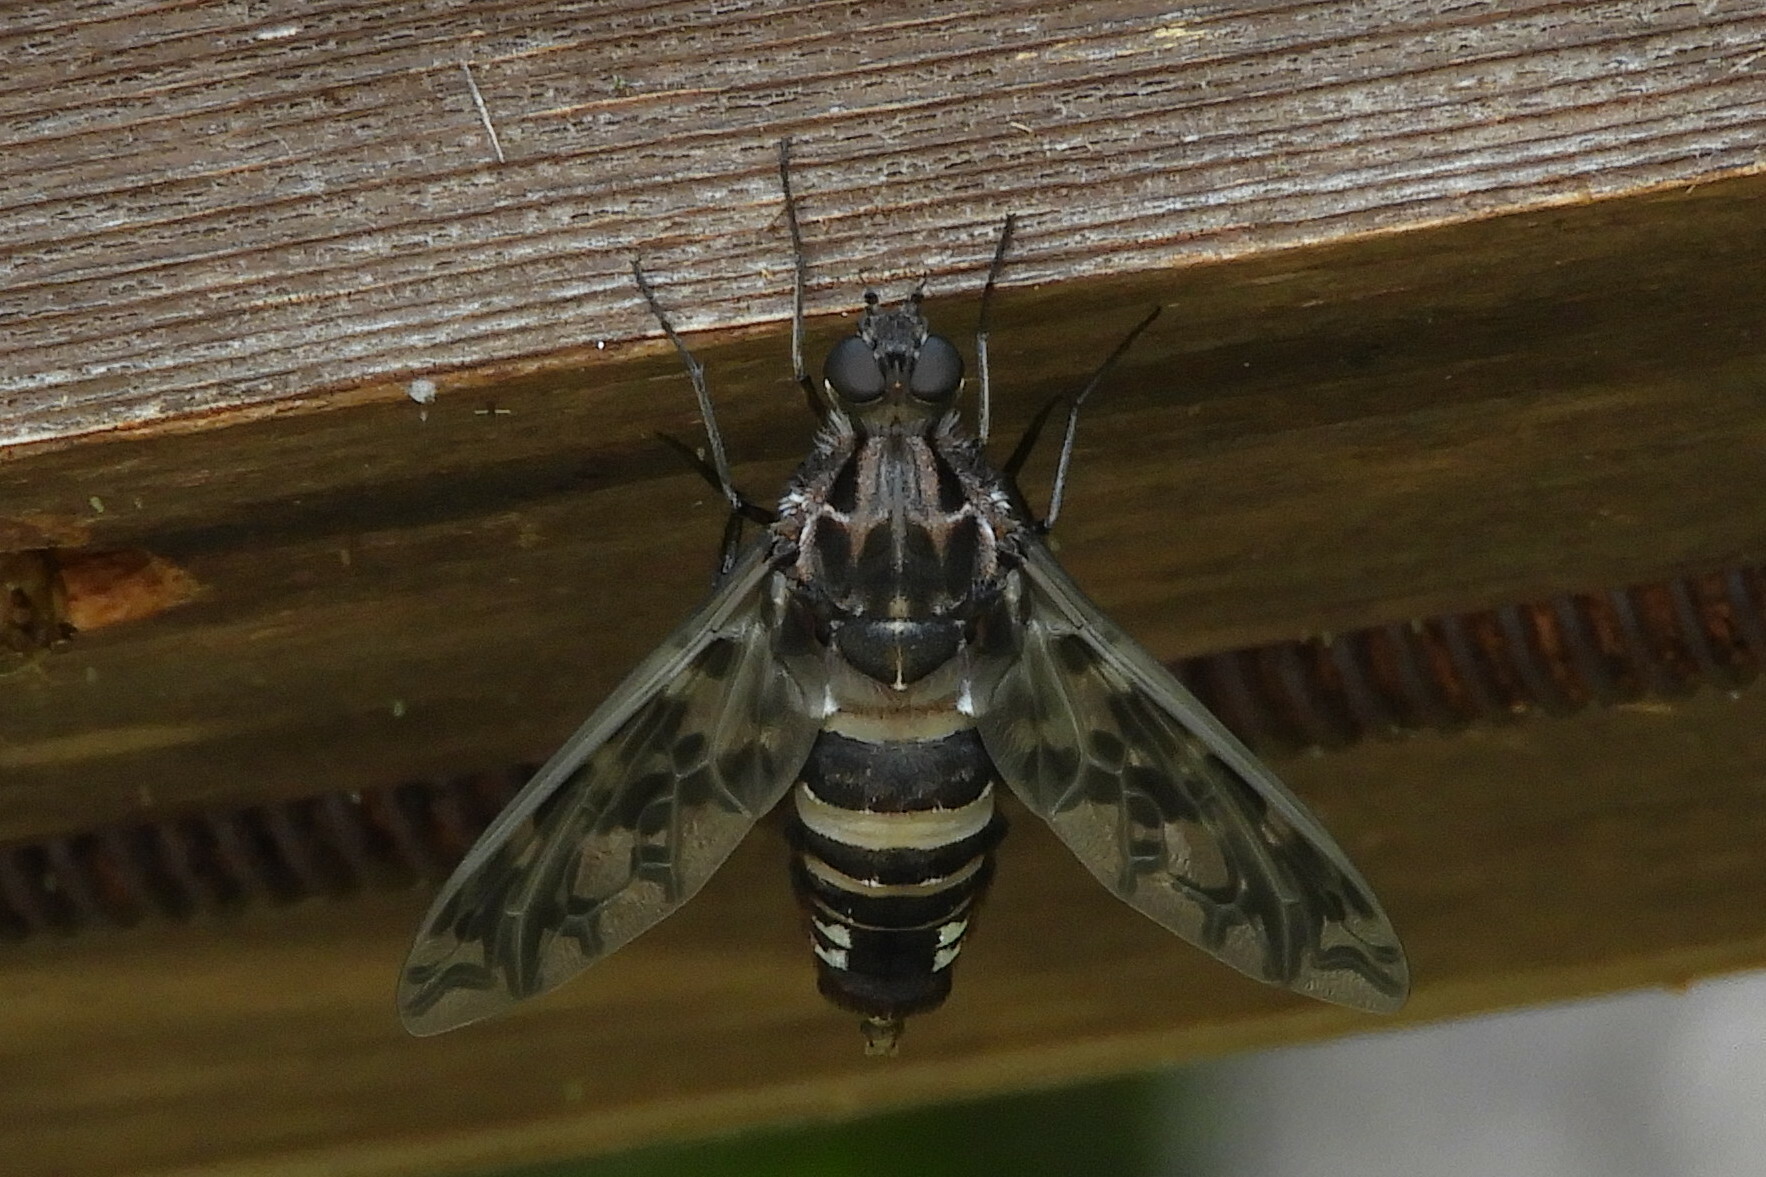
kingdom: Animalia
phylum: Arthropoda
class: Insecta
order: Diptera
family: Bombyliidae
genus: Xenox
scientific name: Xenox tigrinus
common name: Tiger bee fly
